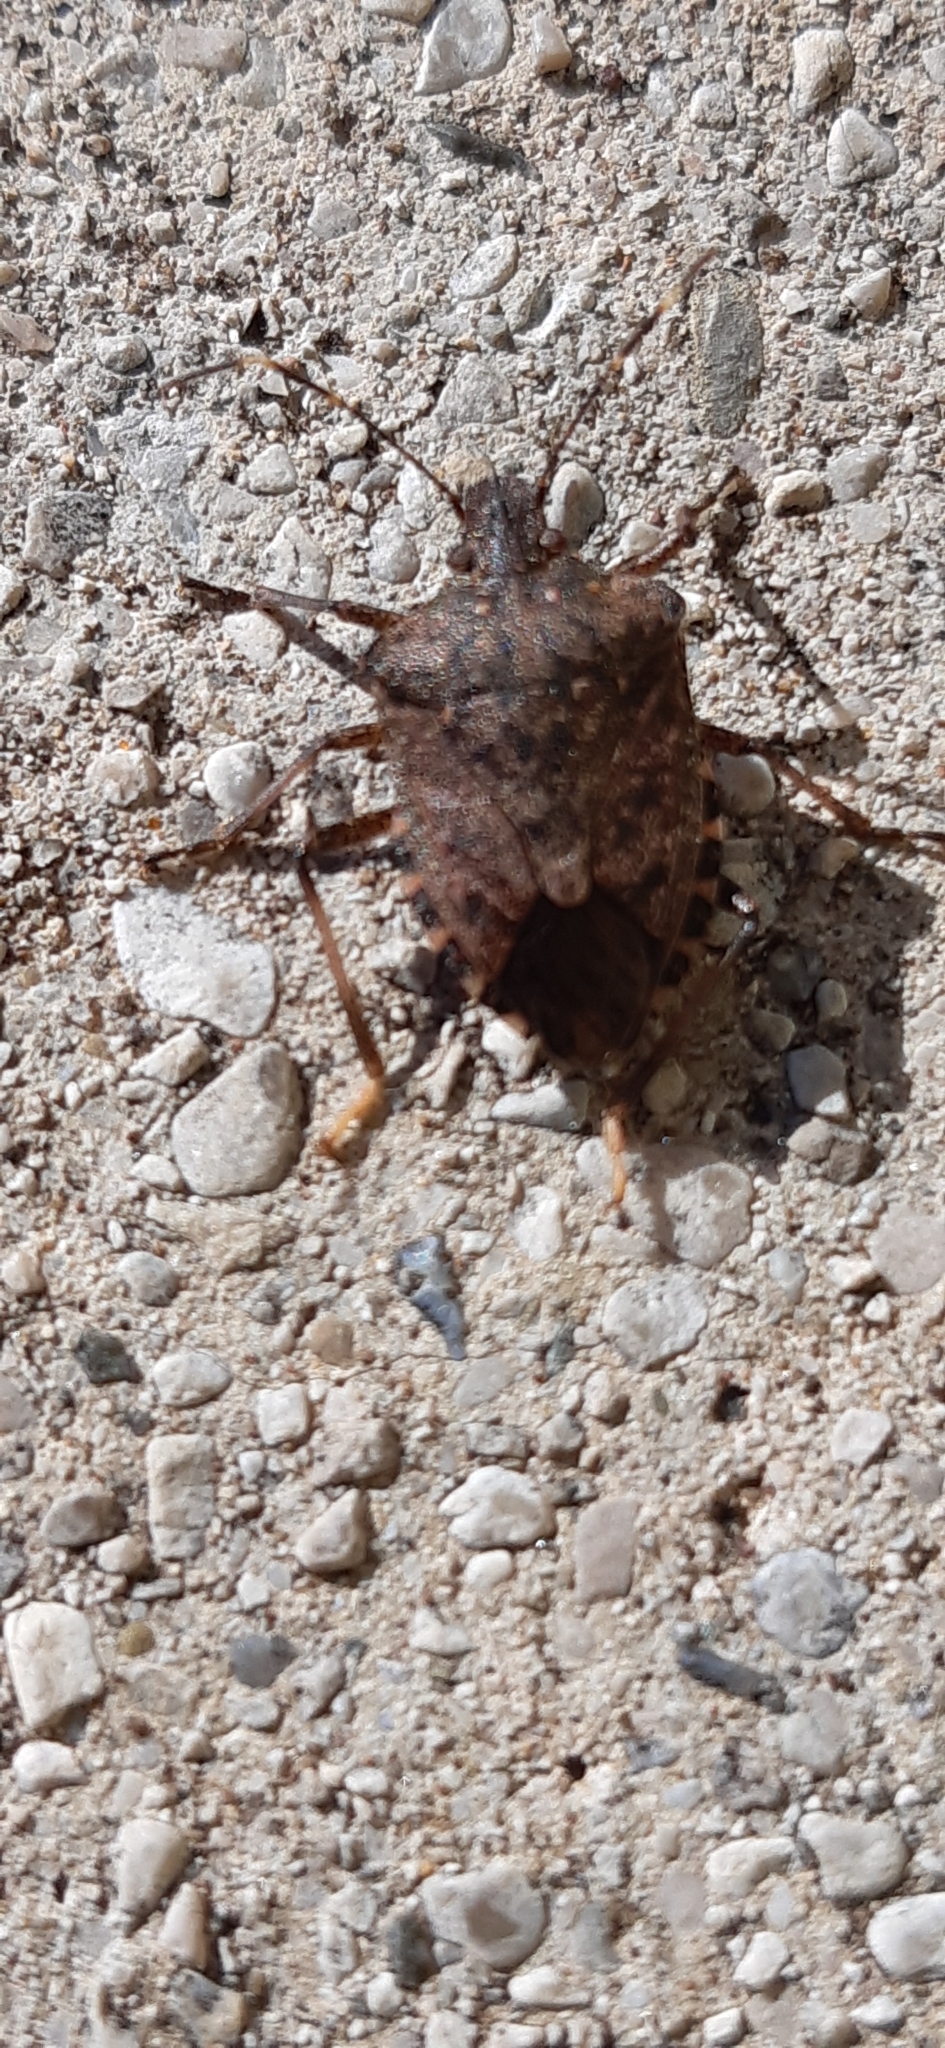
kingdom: Animalia
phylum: Arthropoda
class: Insecta
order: Hemiptera
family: Pentatomidae
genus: Halyomorpha
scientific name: Halyomorpha halys
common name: Brown marmorated stink bug
